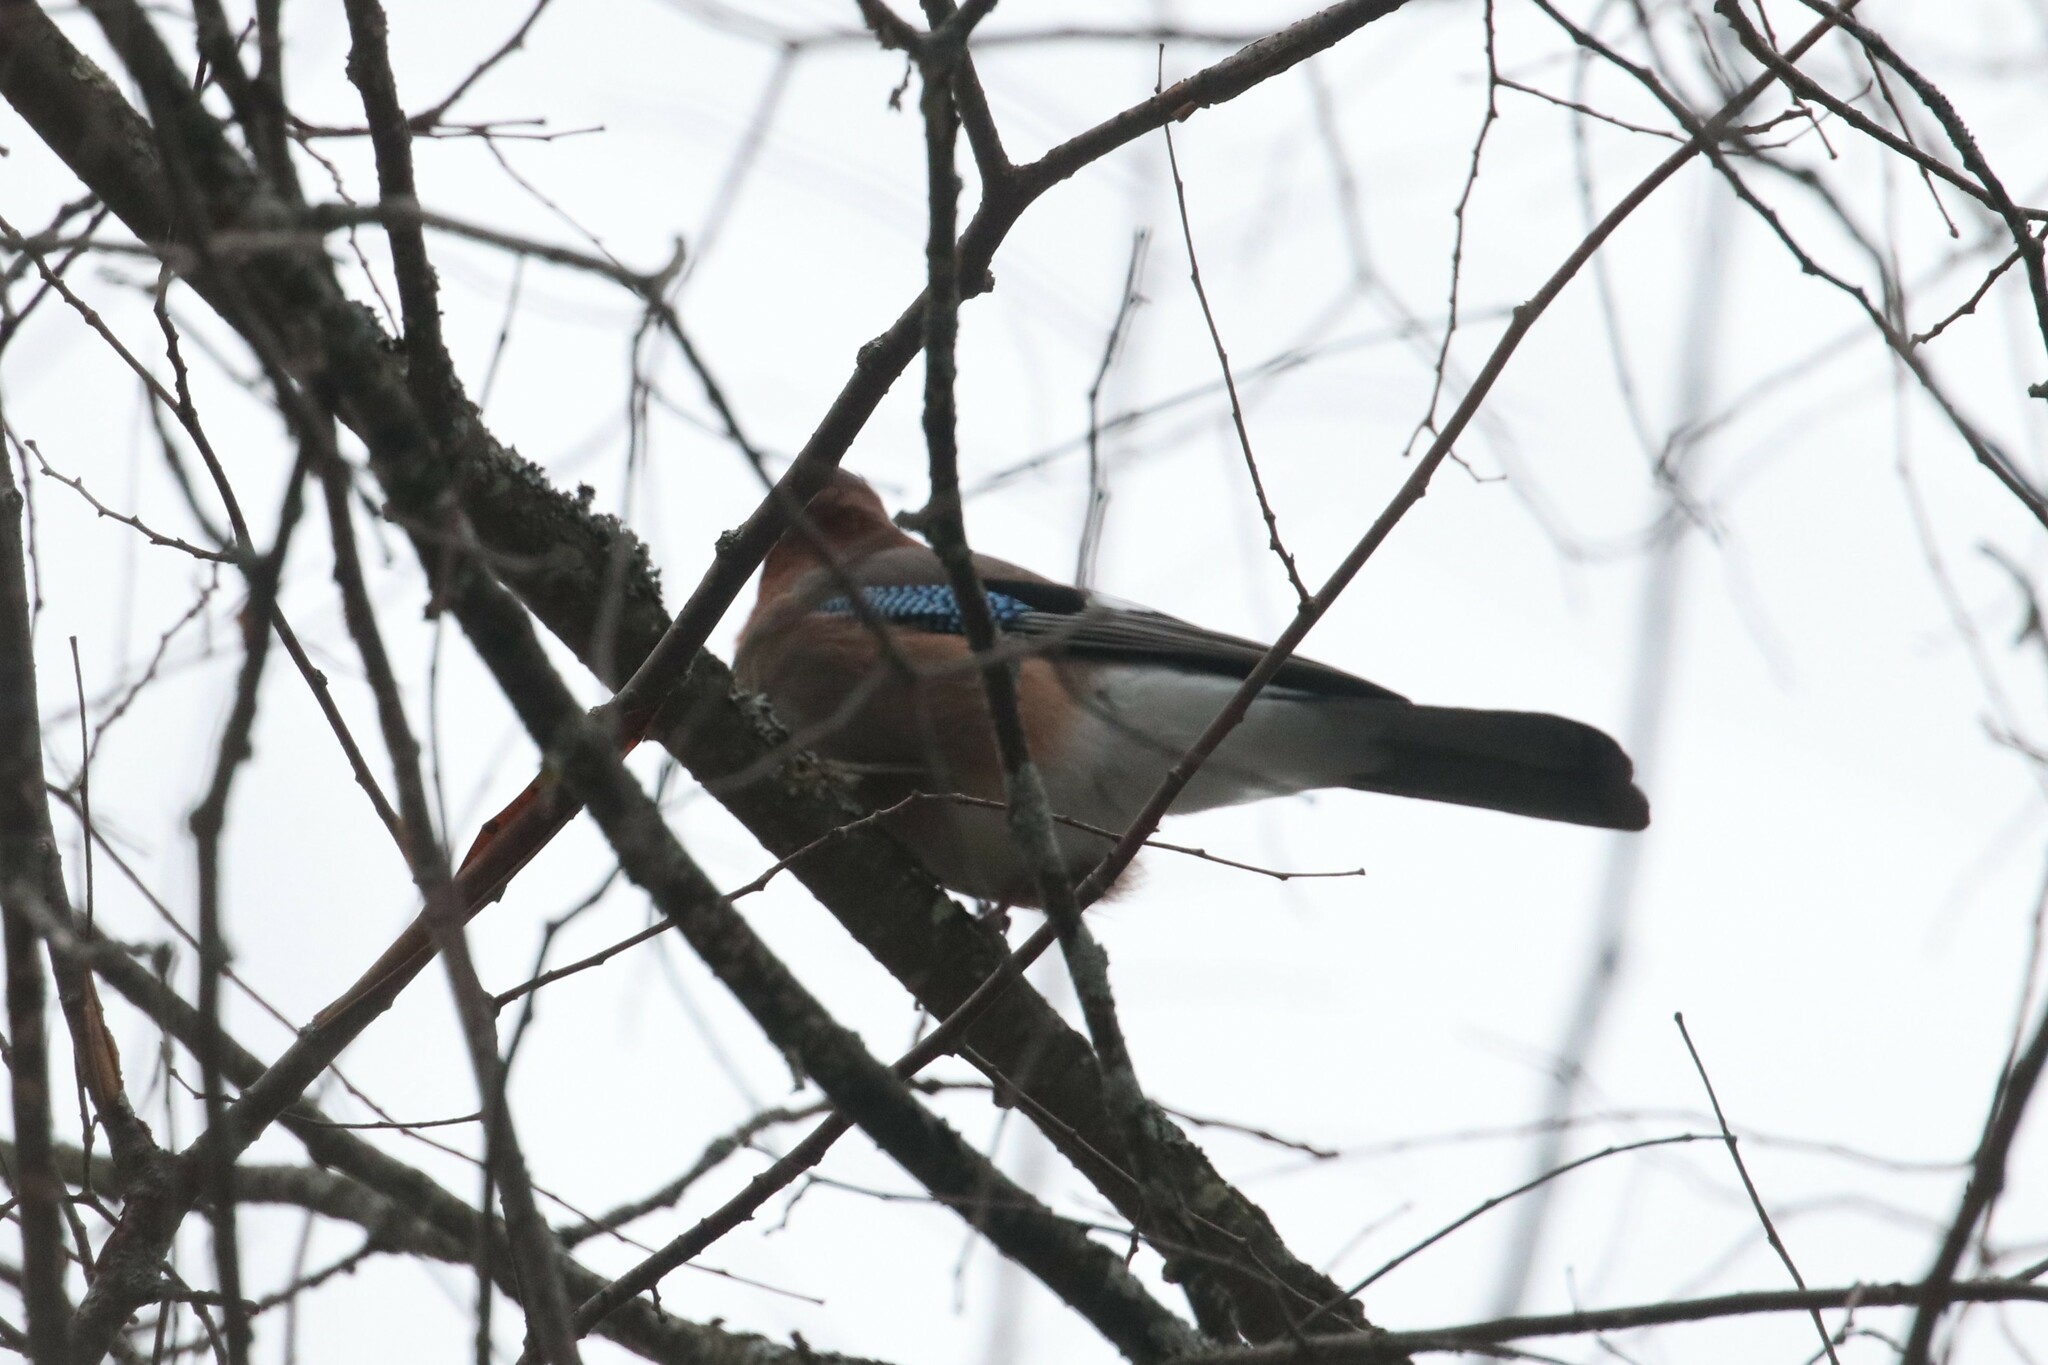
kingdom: Animalia
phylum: Chordata
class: Aves
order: Passeriformes
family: Corvidae
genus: Garrulus
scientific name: Garrulus glandarius
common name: Eurasian jay
